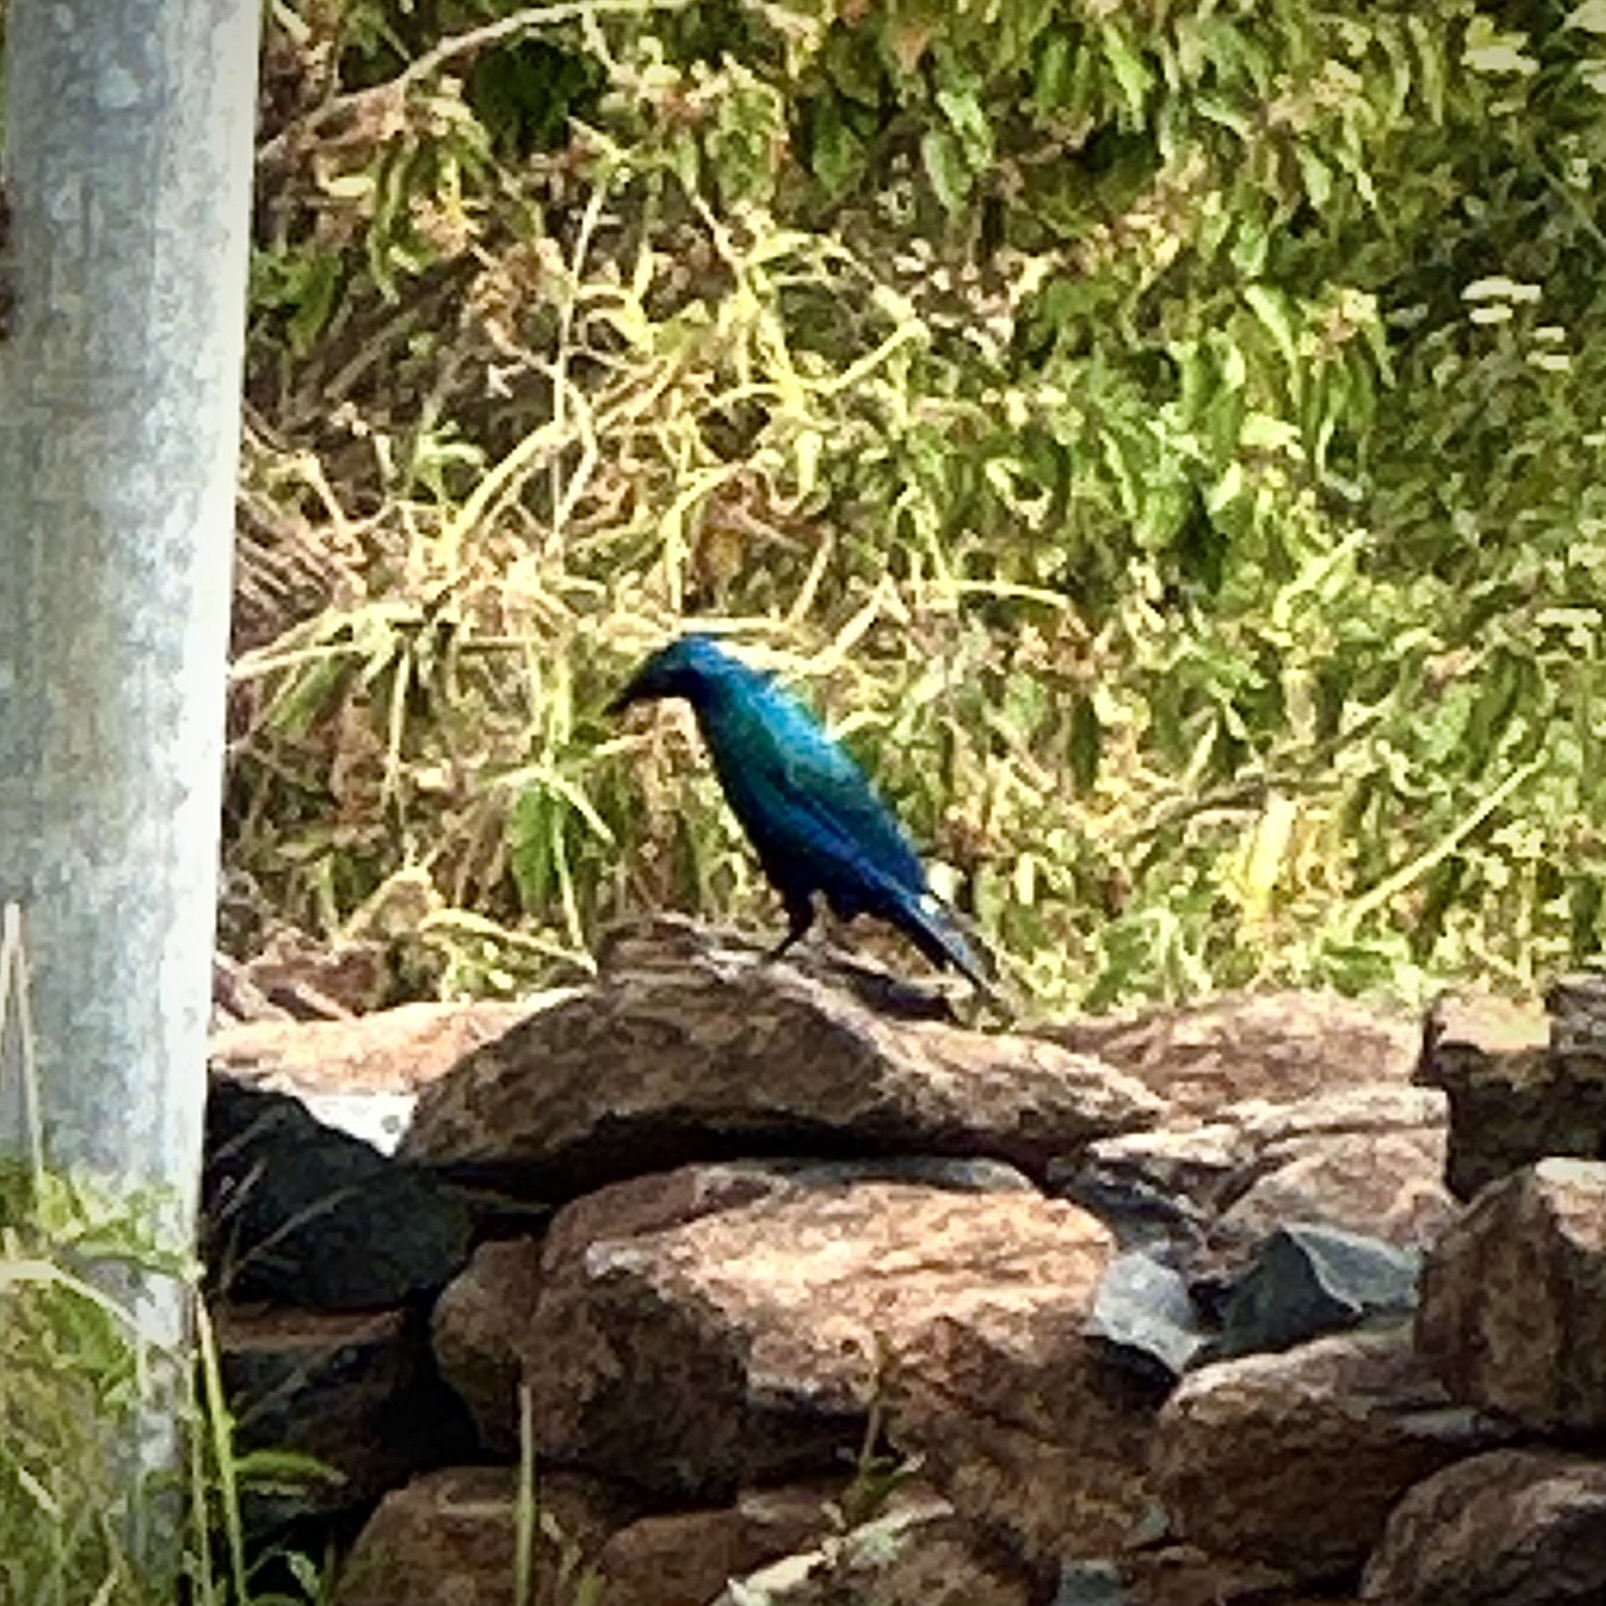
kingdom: Animalia
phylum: Chordata
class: Aves
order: Passeriformes
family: Sturnidae
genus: Lamprotornis
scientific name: Lamprotornis chalybaeus
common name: Greater blue-eared starling
